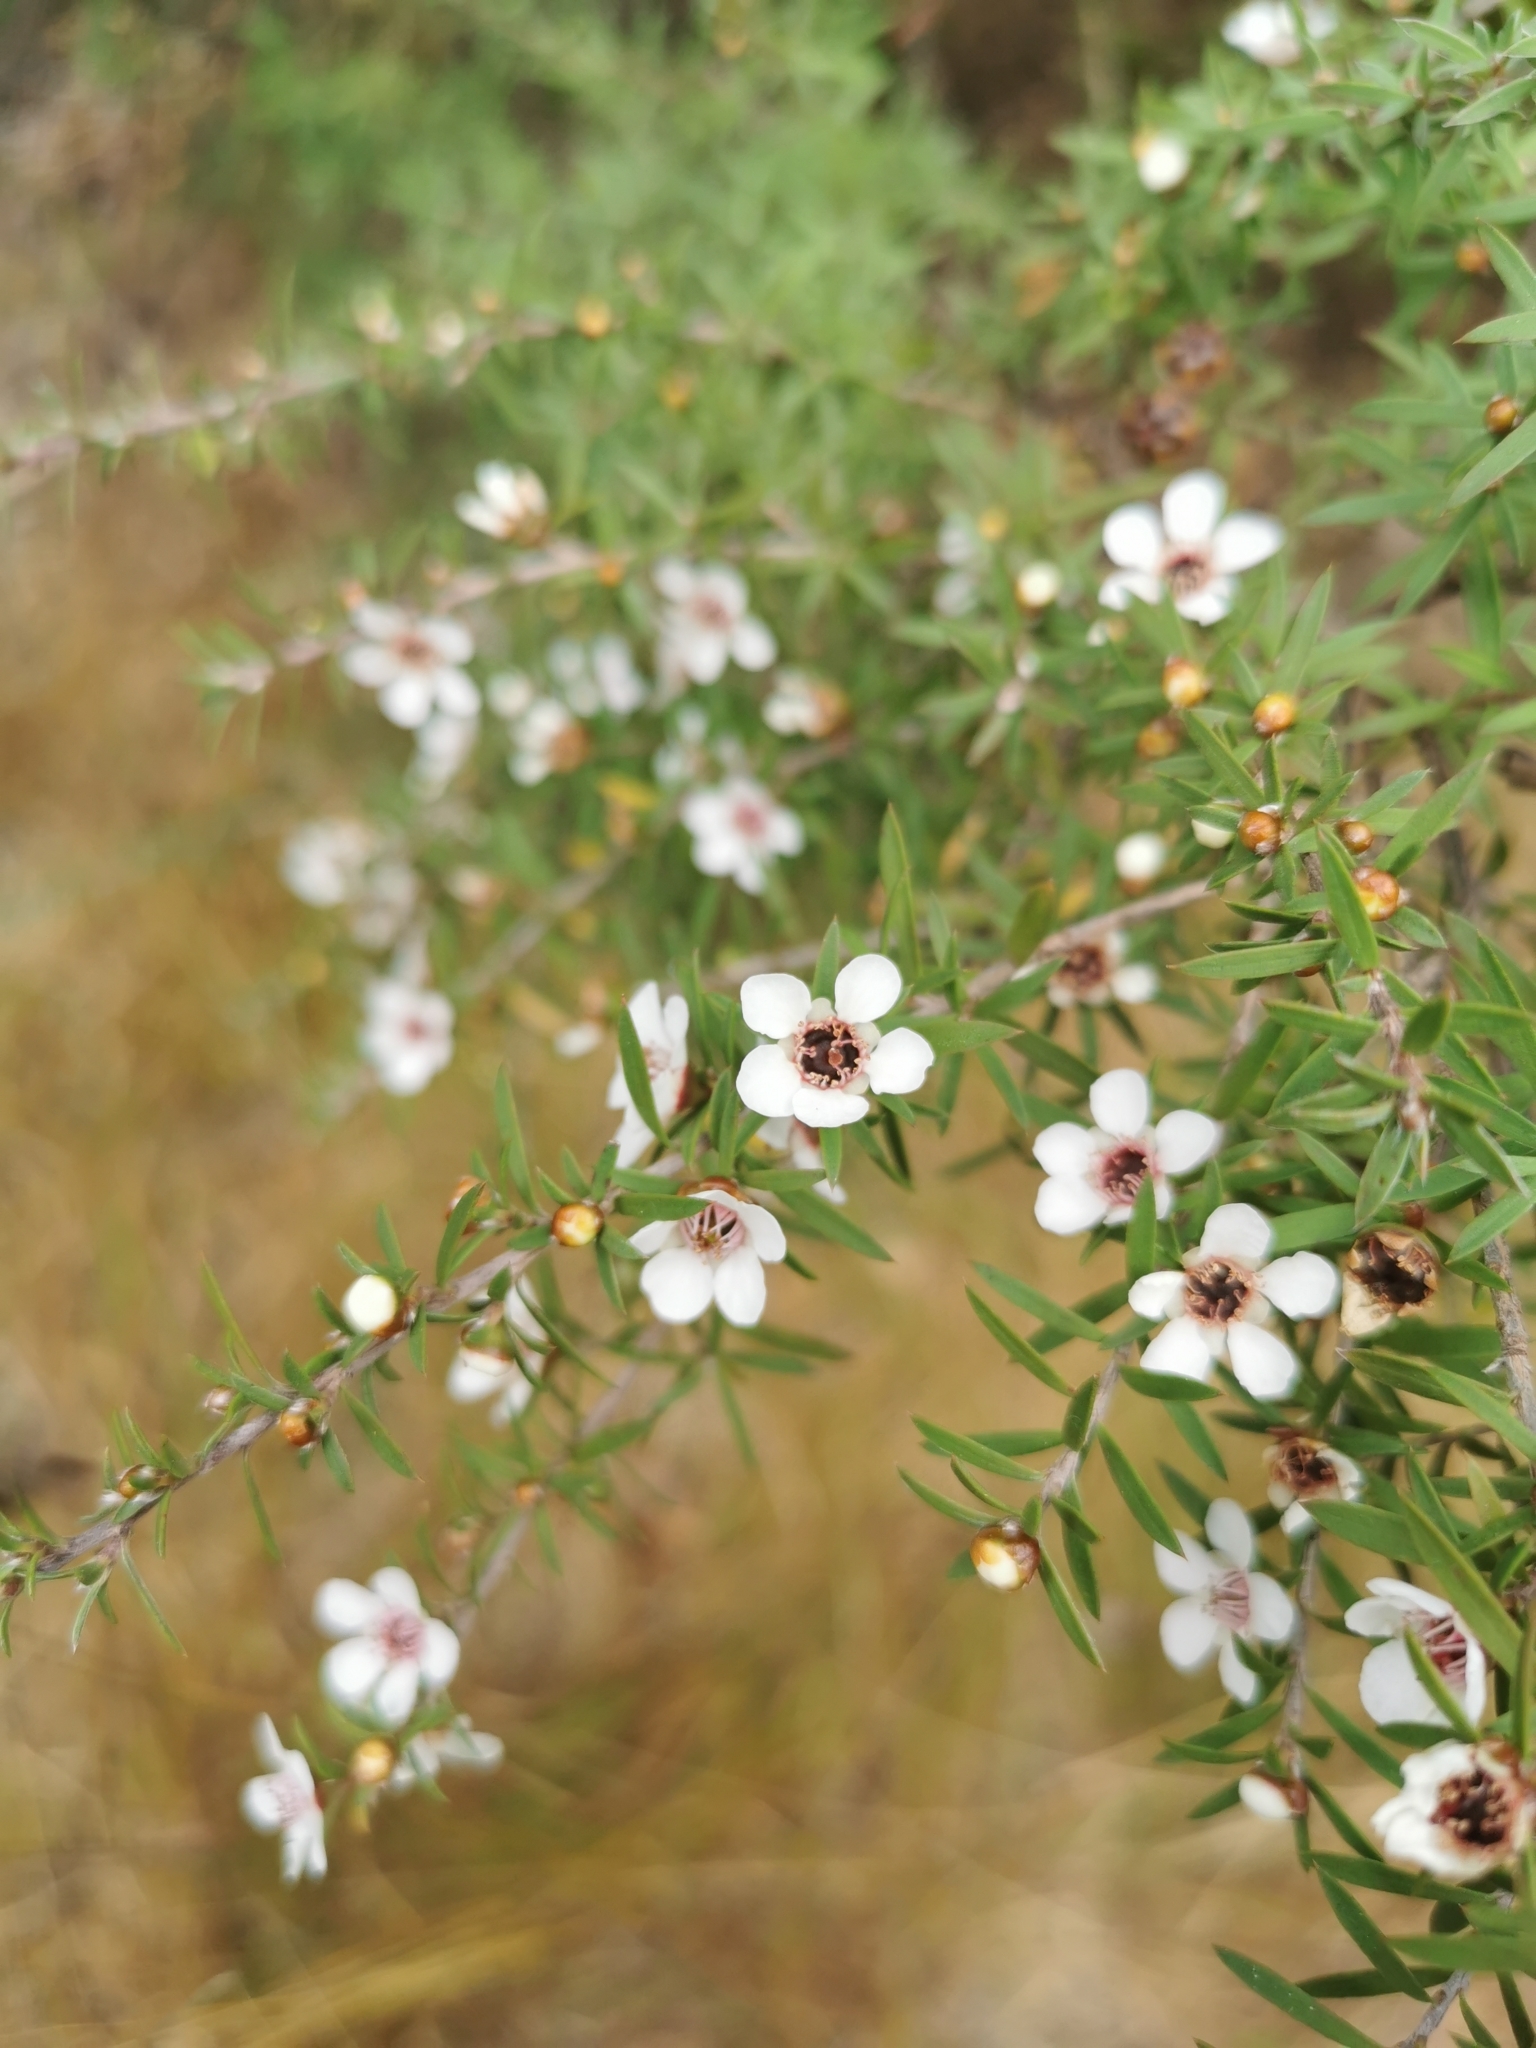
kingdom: Plantae
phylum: Tracheophyta
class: Magnoliopsida
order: Myrtales
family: Myrtaceae
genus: Leptospermum
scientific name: Leptospermum scoparium
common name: Broom tea-tree
